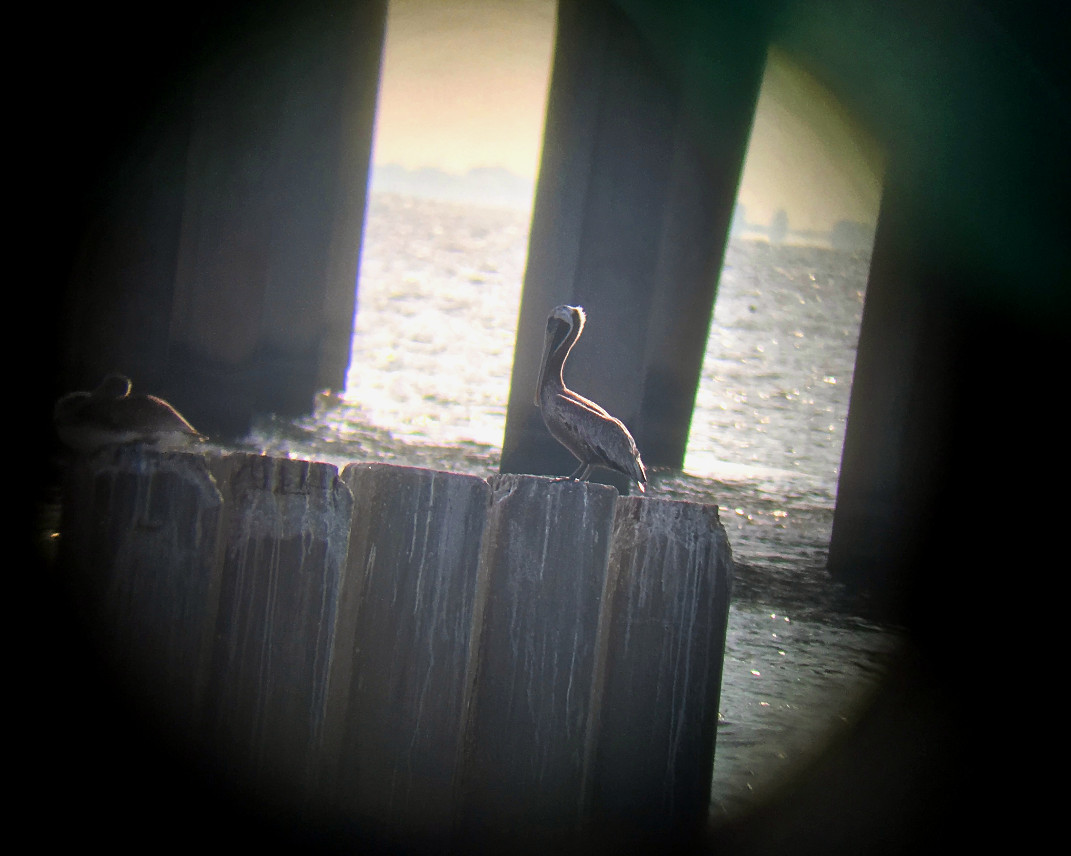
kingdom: Animalia
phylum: Chordata
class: Aves
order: Pelecaniformes
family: Pelecanidae
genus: Pelecanus
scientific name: Pelecanus occidentalis
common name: Brown pelican
